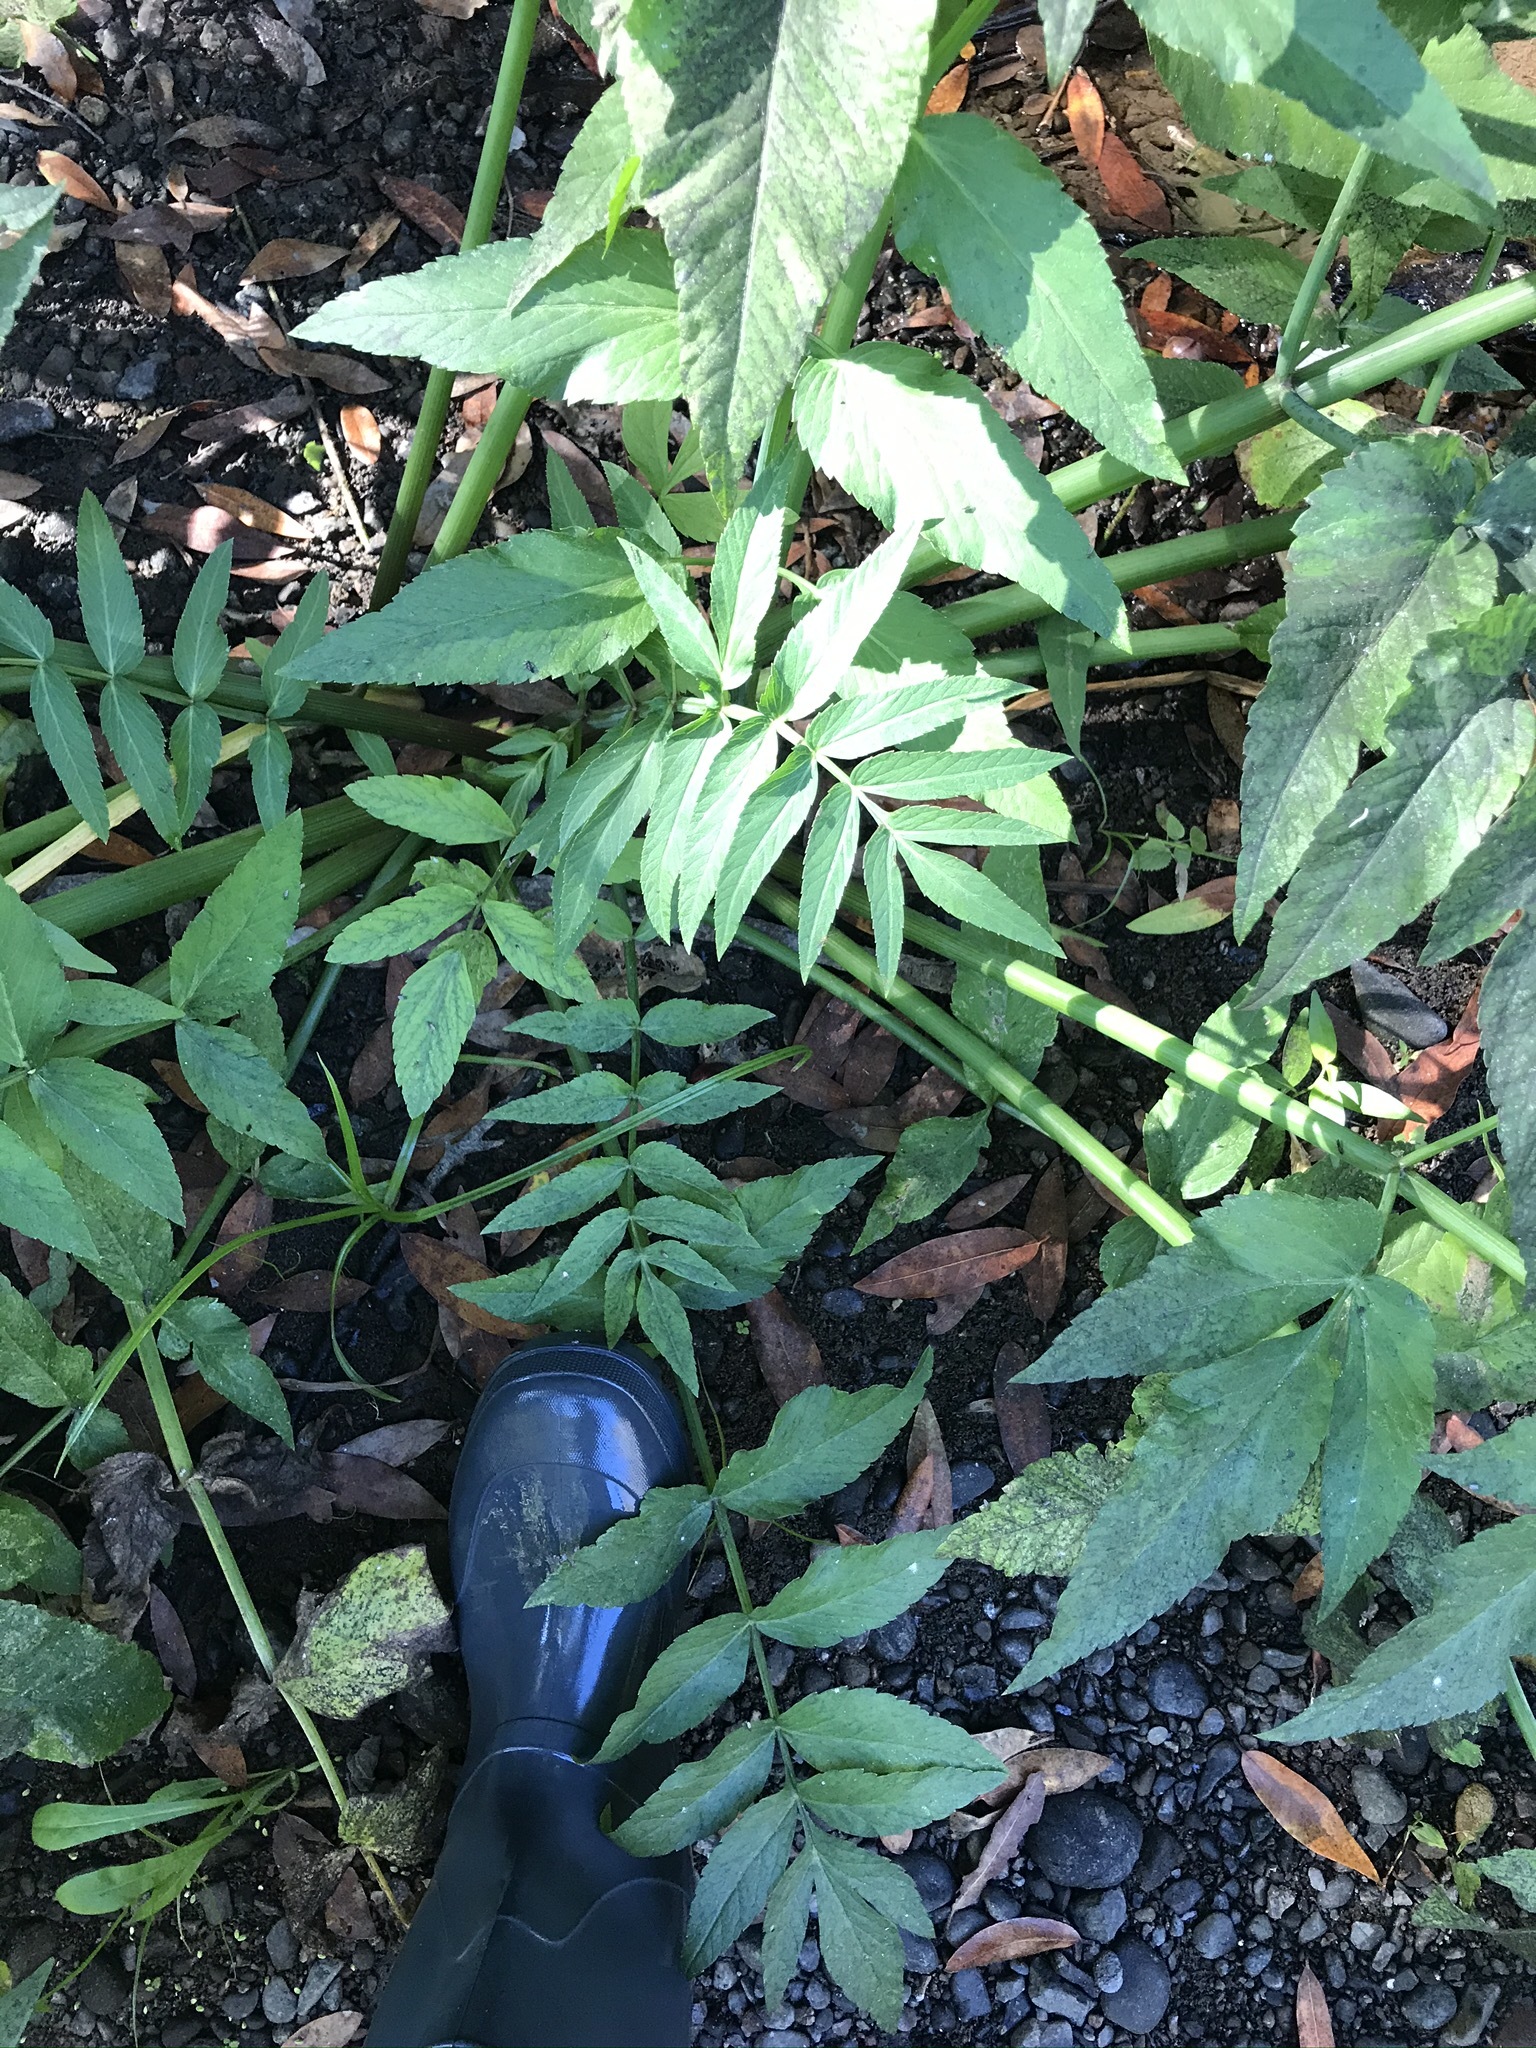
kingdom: Plantae
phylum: Tracheophyta
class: Magnoliopsida
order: Apiales
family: Apiaceae
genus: Cicuta
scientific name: Cicuta douglasii
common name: Western water-hemlock
